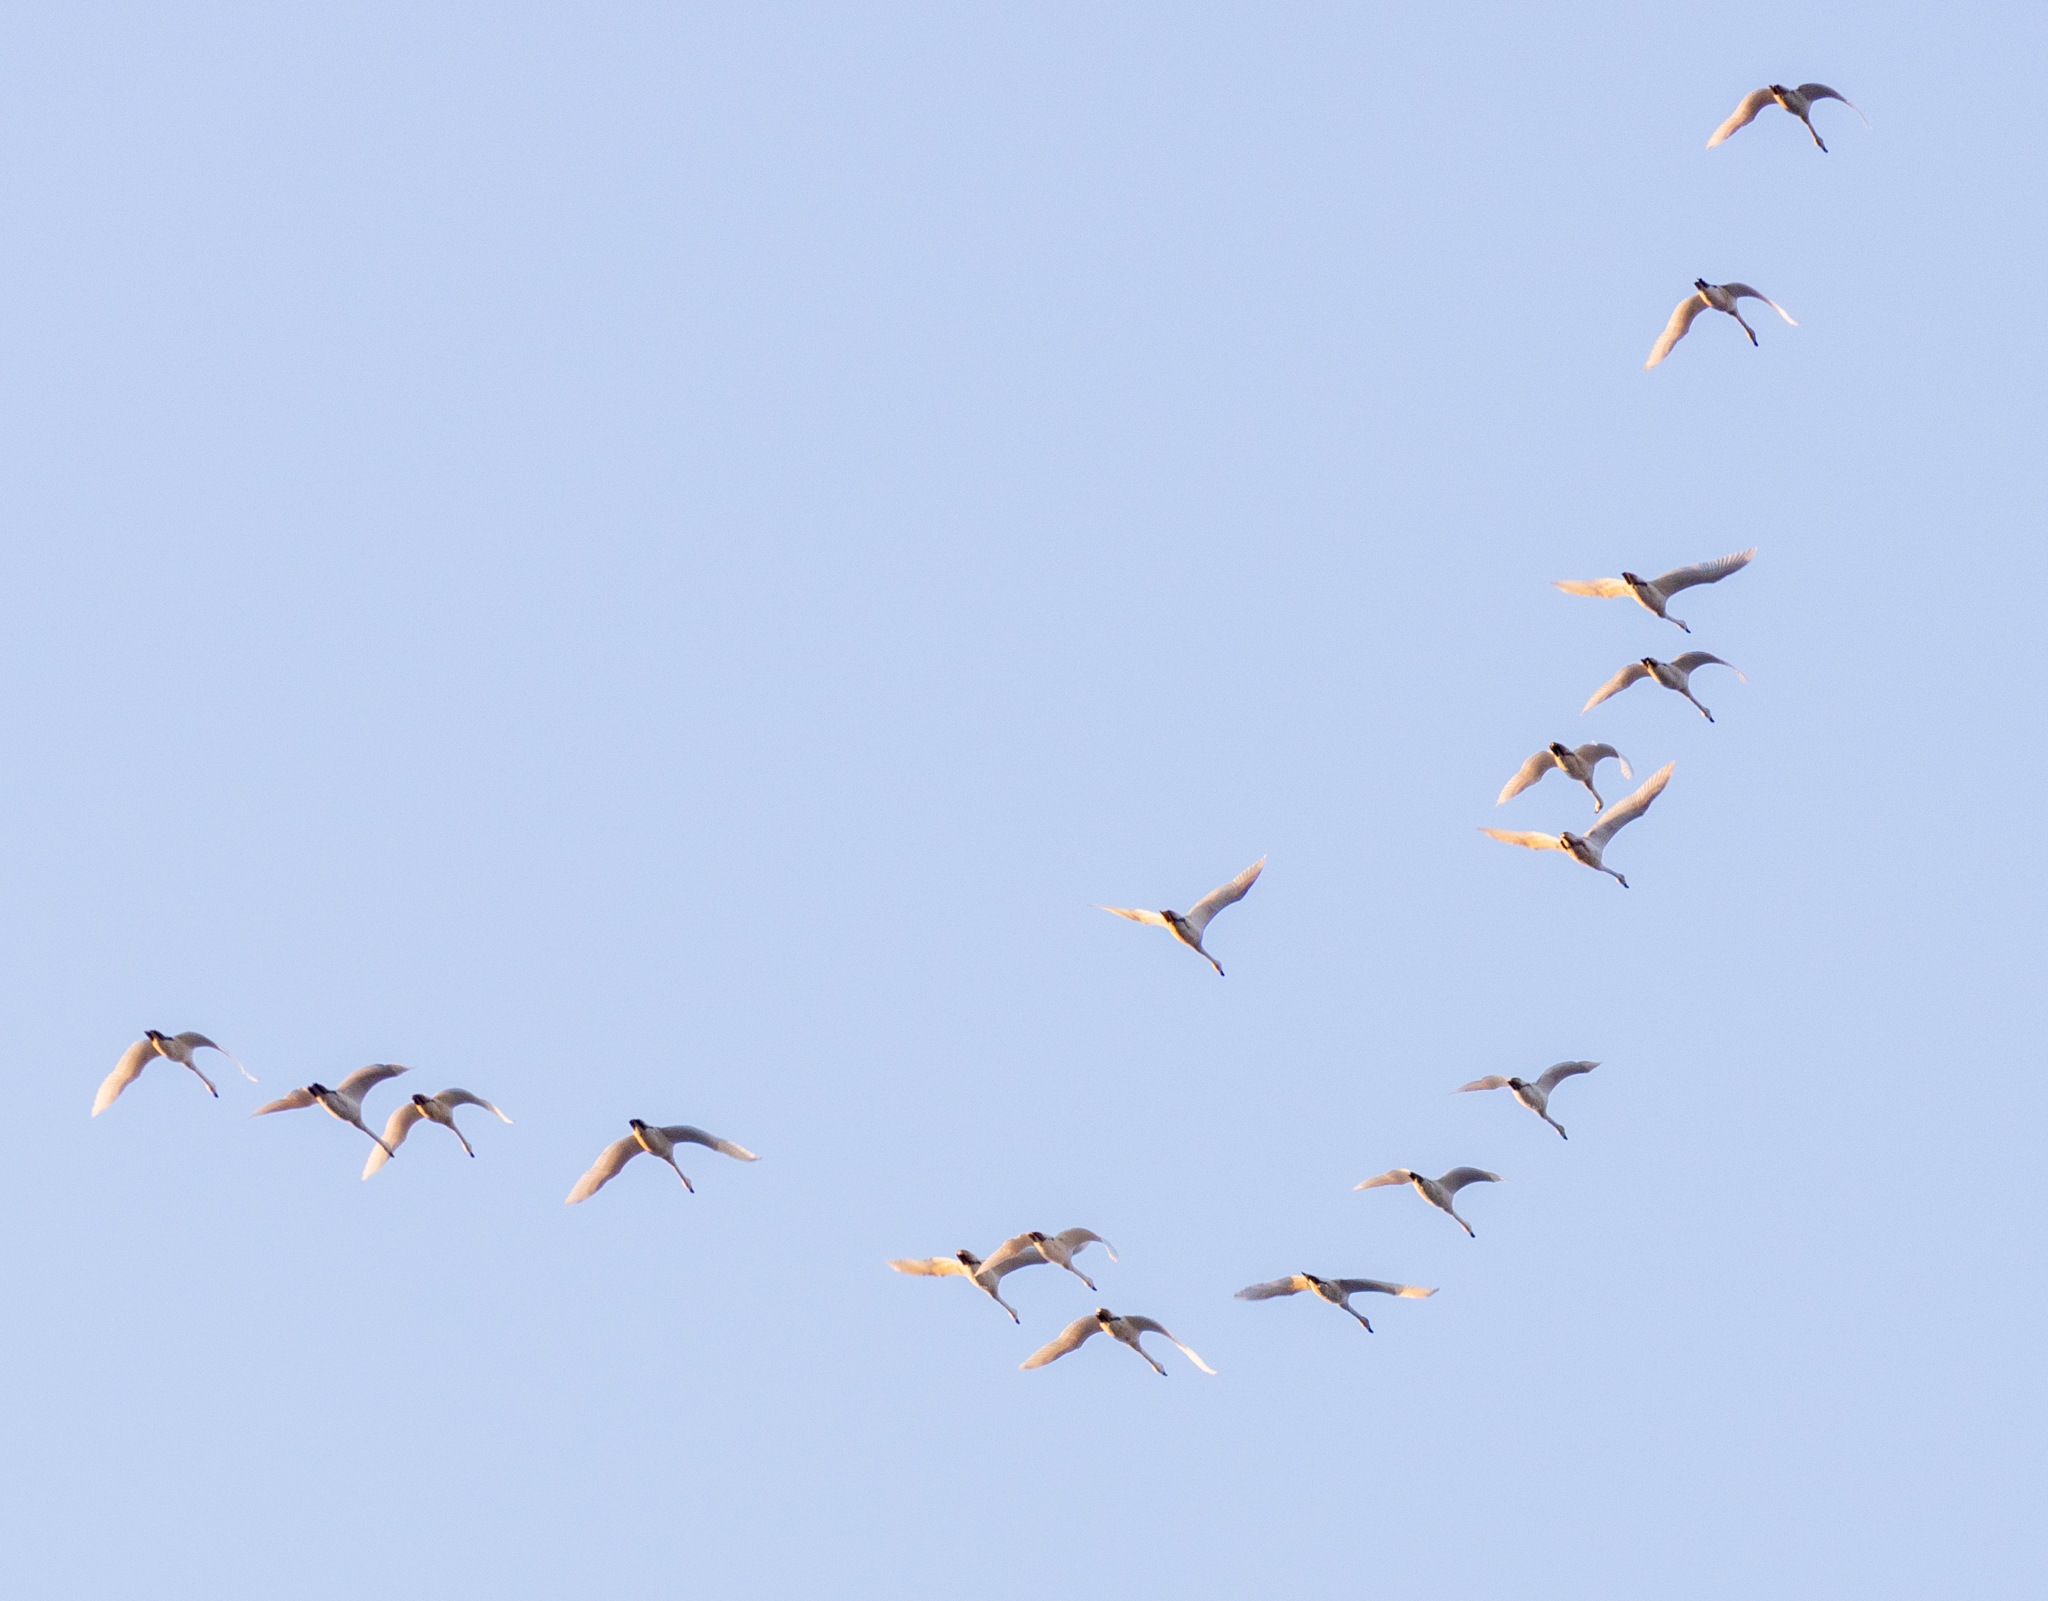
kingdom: Animalia
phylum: Chordata
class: Aves
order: Anseriformes
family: Anatidae
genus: Cygnus
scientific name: Cygnus columbianus
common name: Tundra swan
